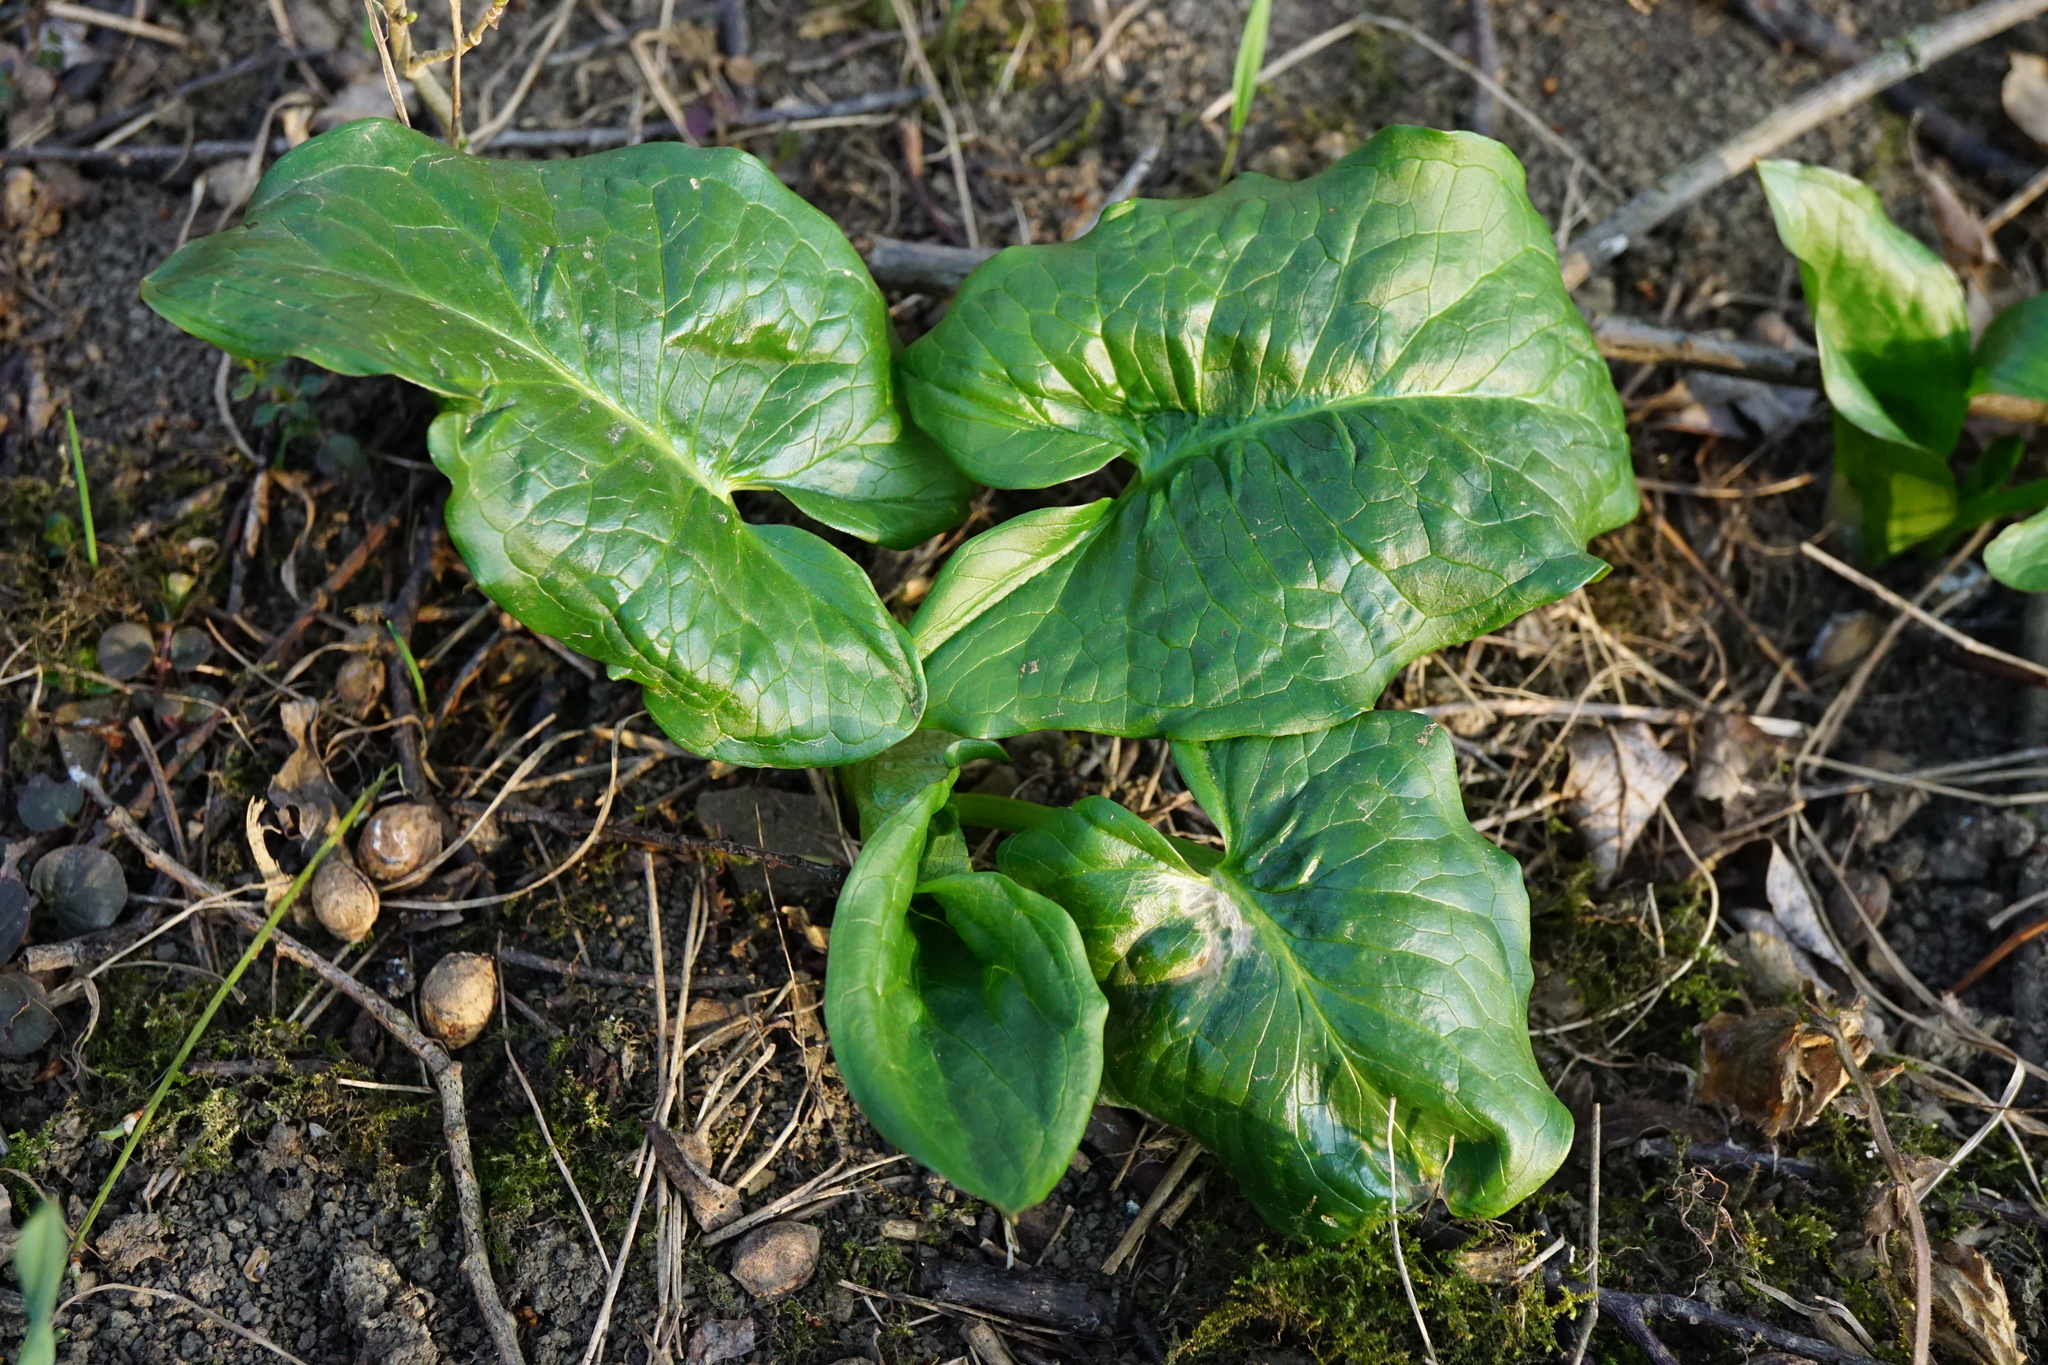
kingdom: Plantae
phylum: Tracheophyta
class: Liliopsida
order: Alismatales
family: Araceae
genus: Arum
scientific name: Arum cylindraceum
